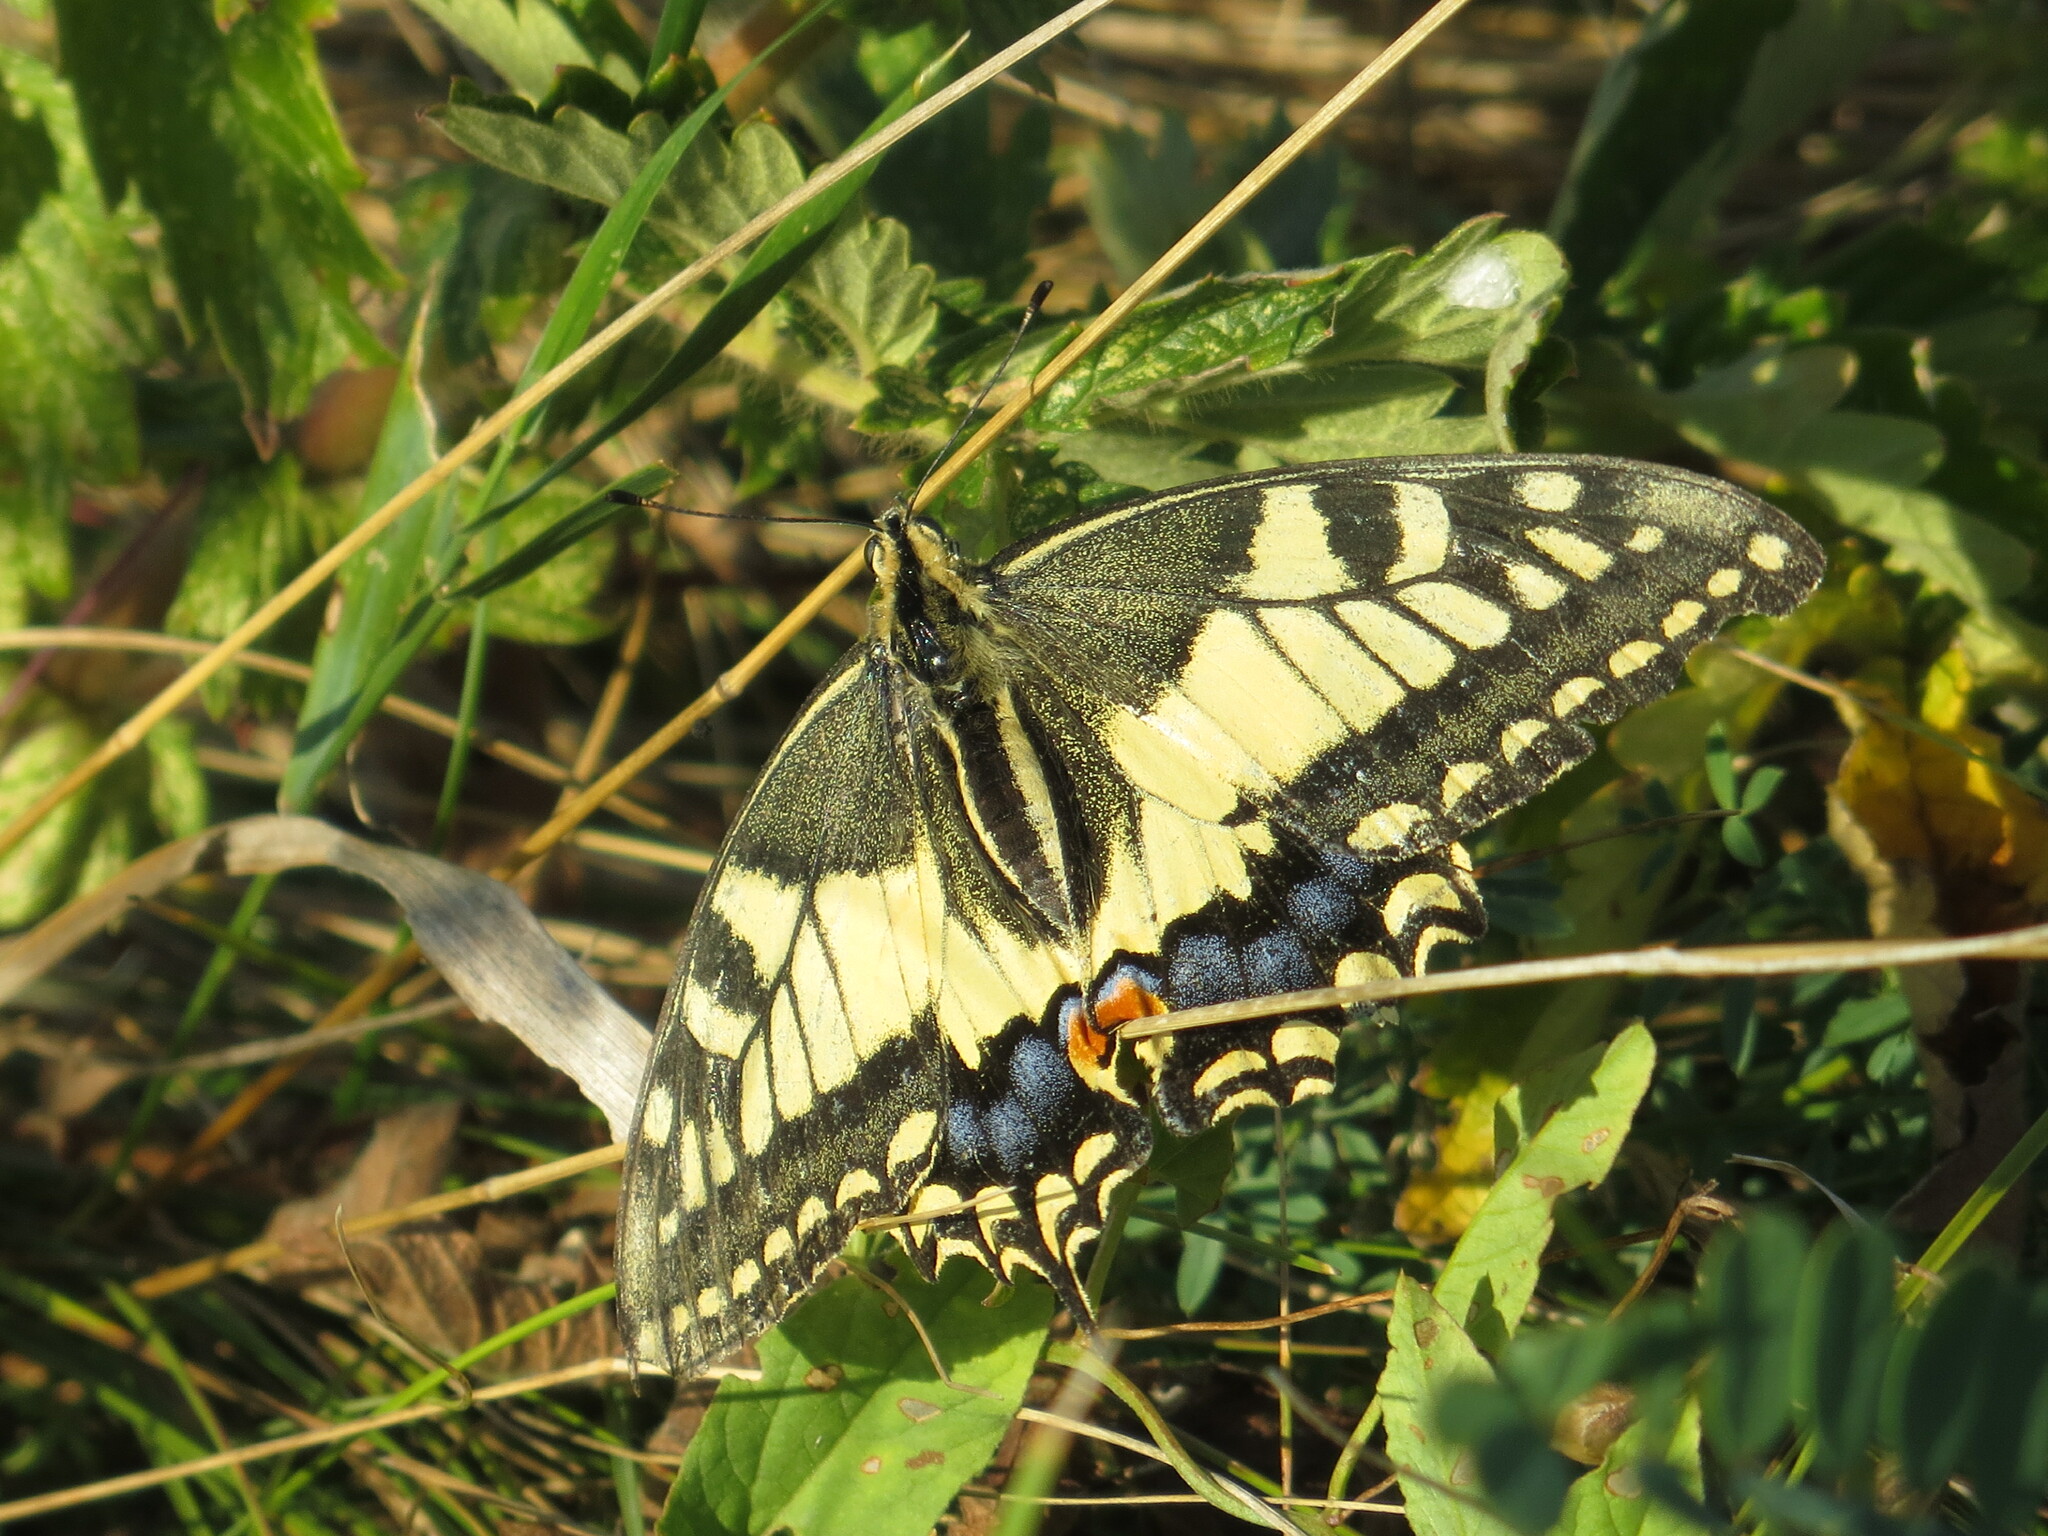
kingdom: Animalia
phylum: Arthropoda
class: Insecta
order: Lepidoptera
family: Papilionidae
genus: Papilio
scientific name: Papilio machaon
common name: Swallowtail
